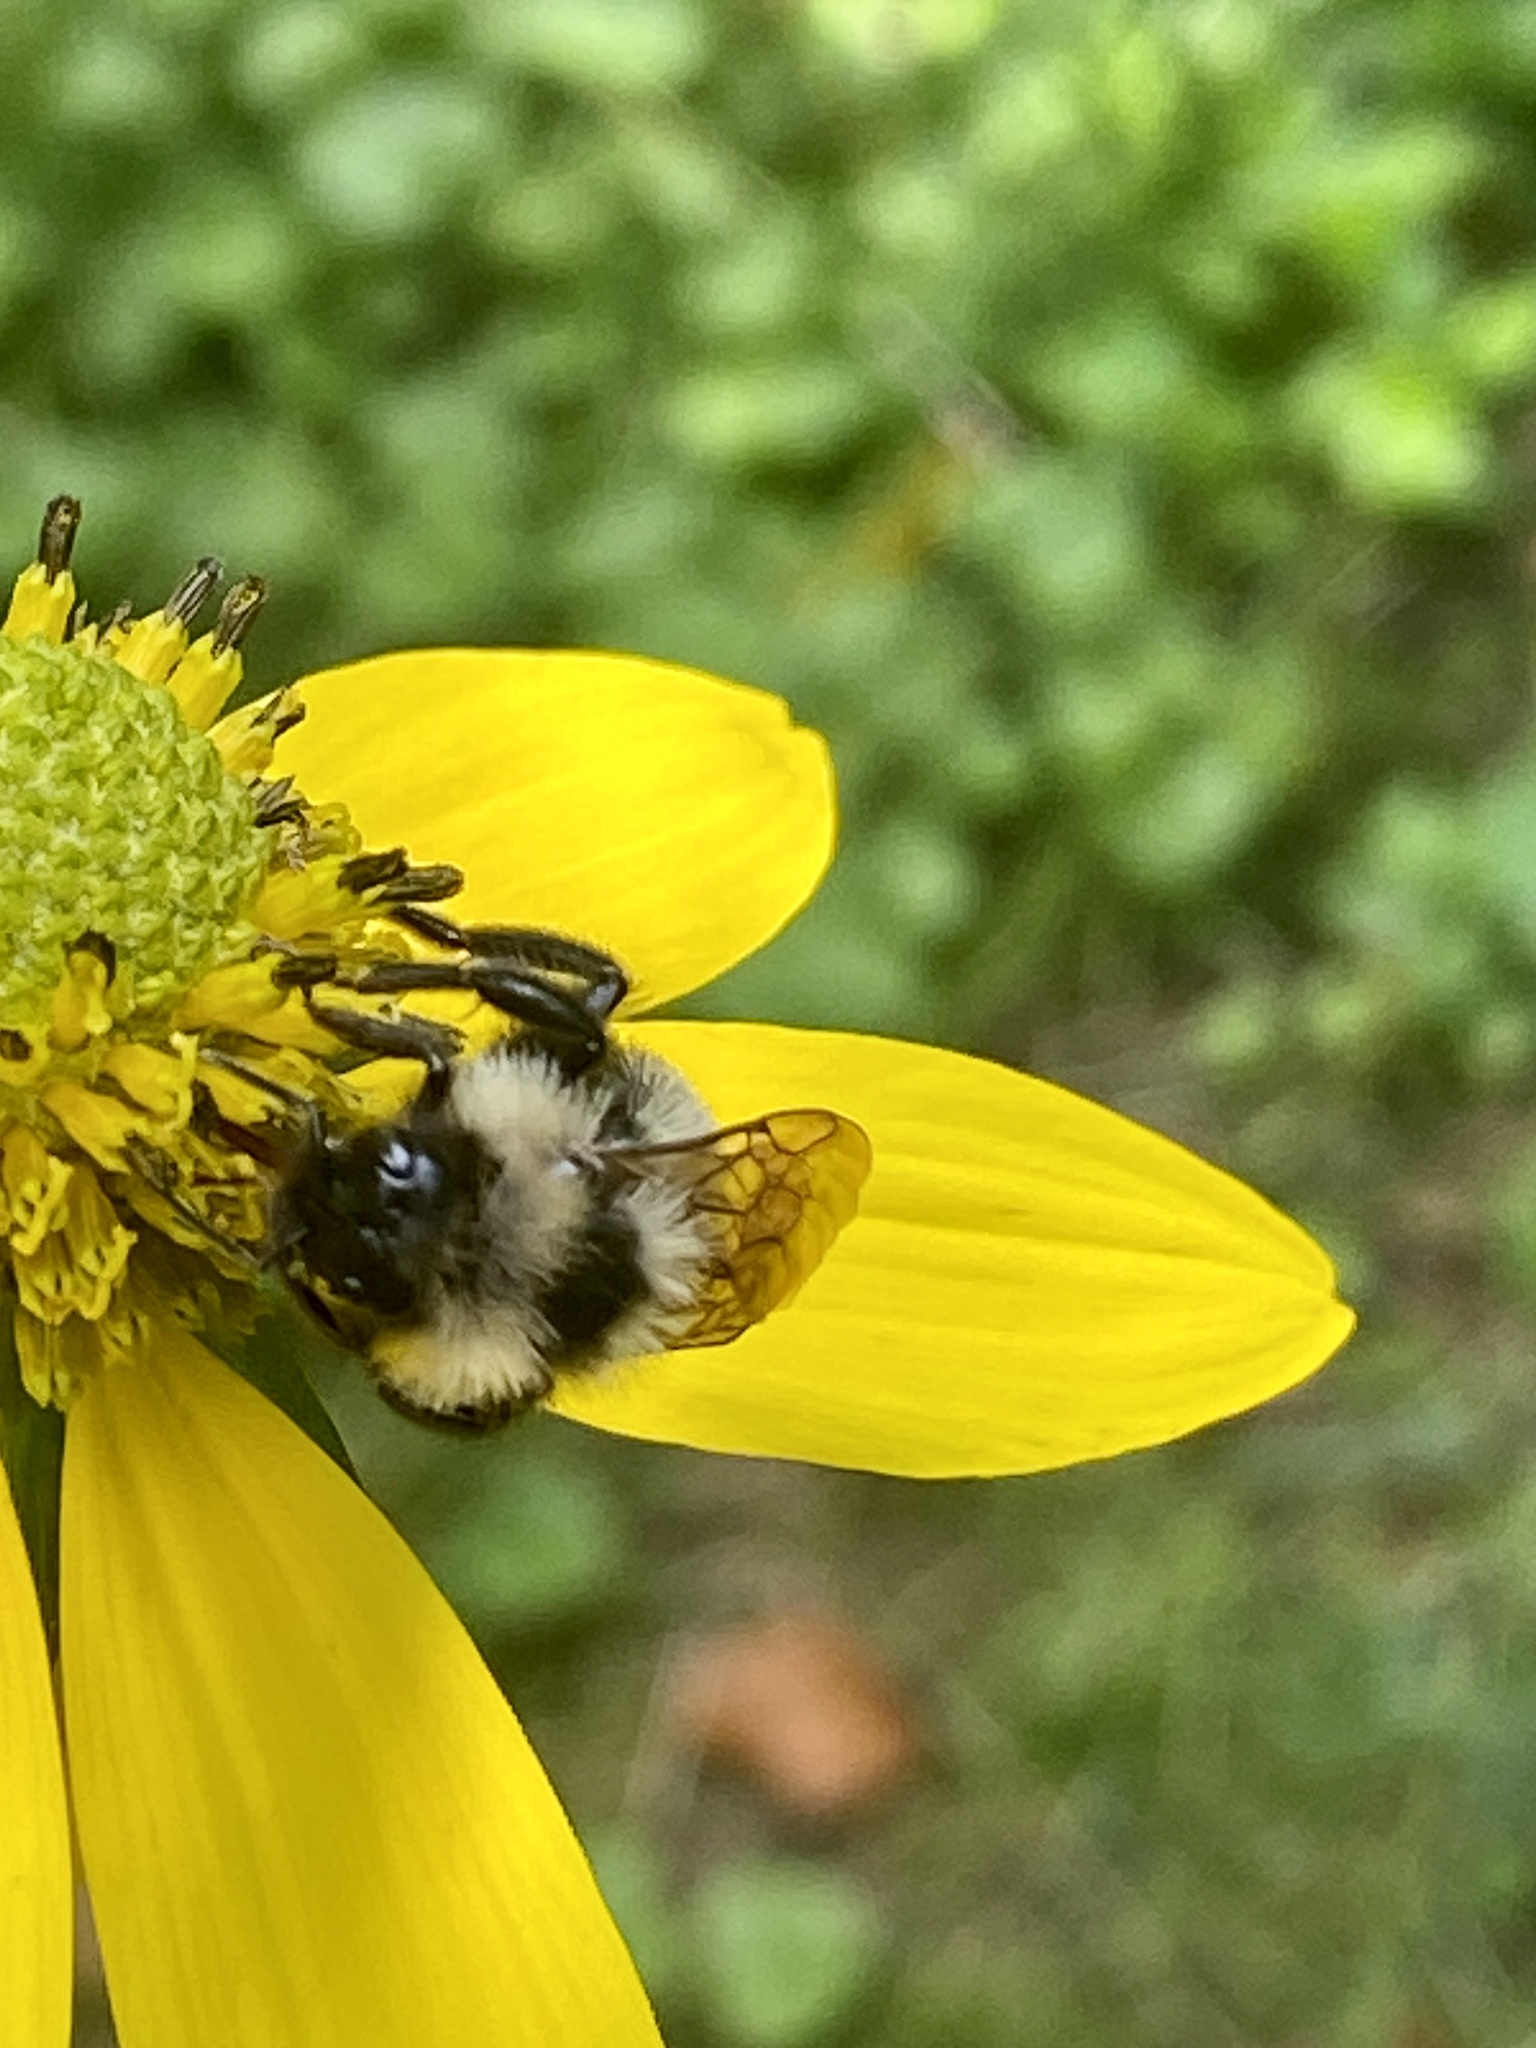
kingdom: Animalia
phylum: Arthropoda
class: Insecta
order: Hymenoptera
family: Apidae
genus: Bombus
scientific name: Bombus citrinus
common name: Lemon cuckoo bumble bee
